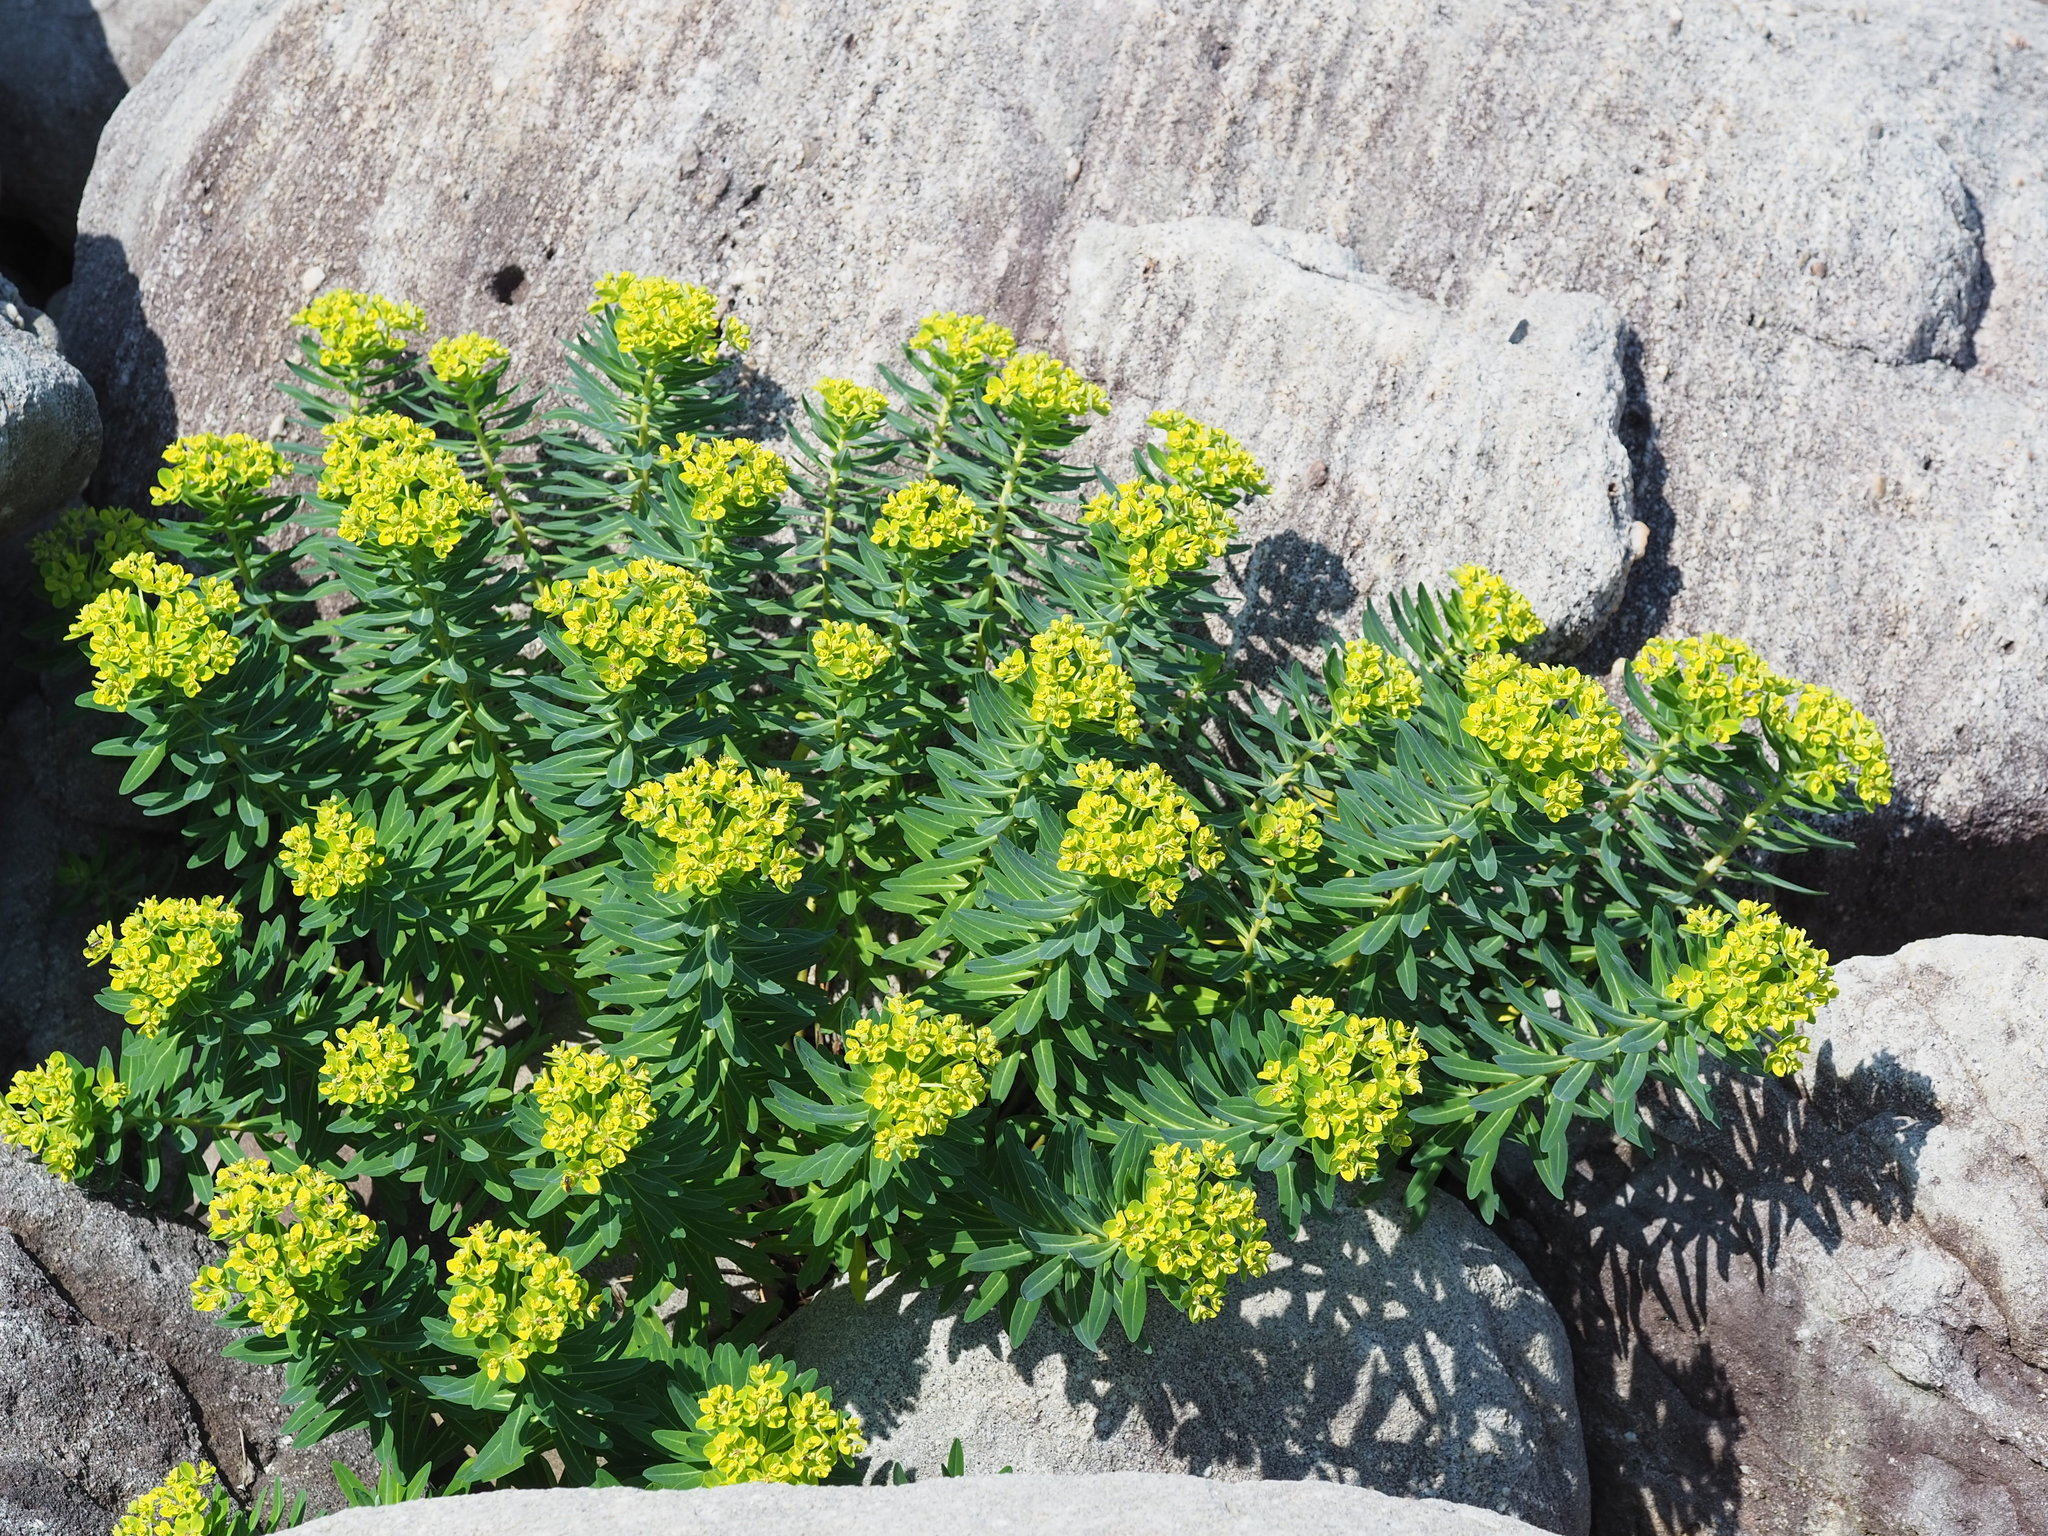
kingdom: Plantae
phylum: Tracheophyta
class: Magnoliopsida
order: Malpighiales
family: Euphorbiaceae
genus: Euphorbia
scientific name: Euphorbia jolkinii
